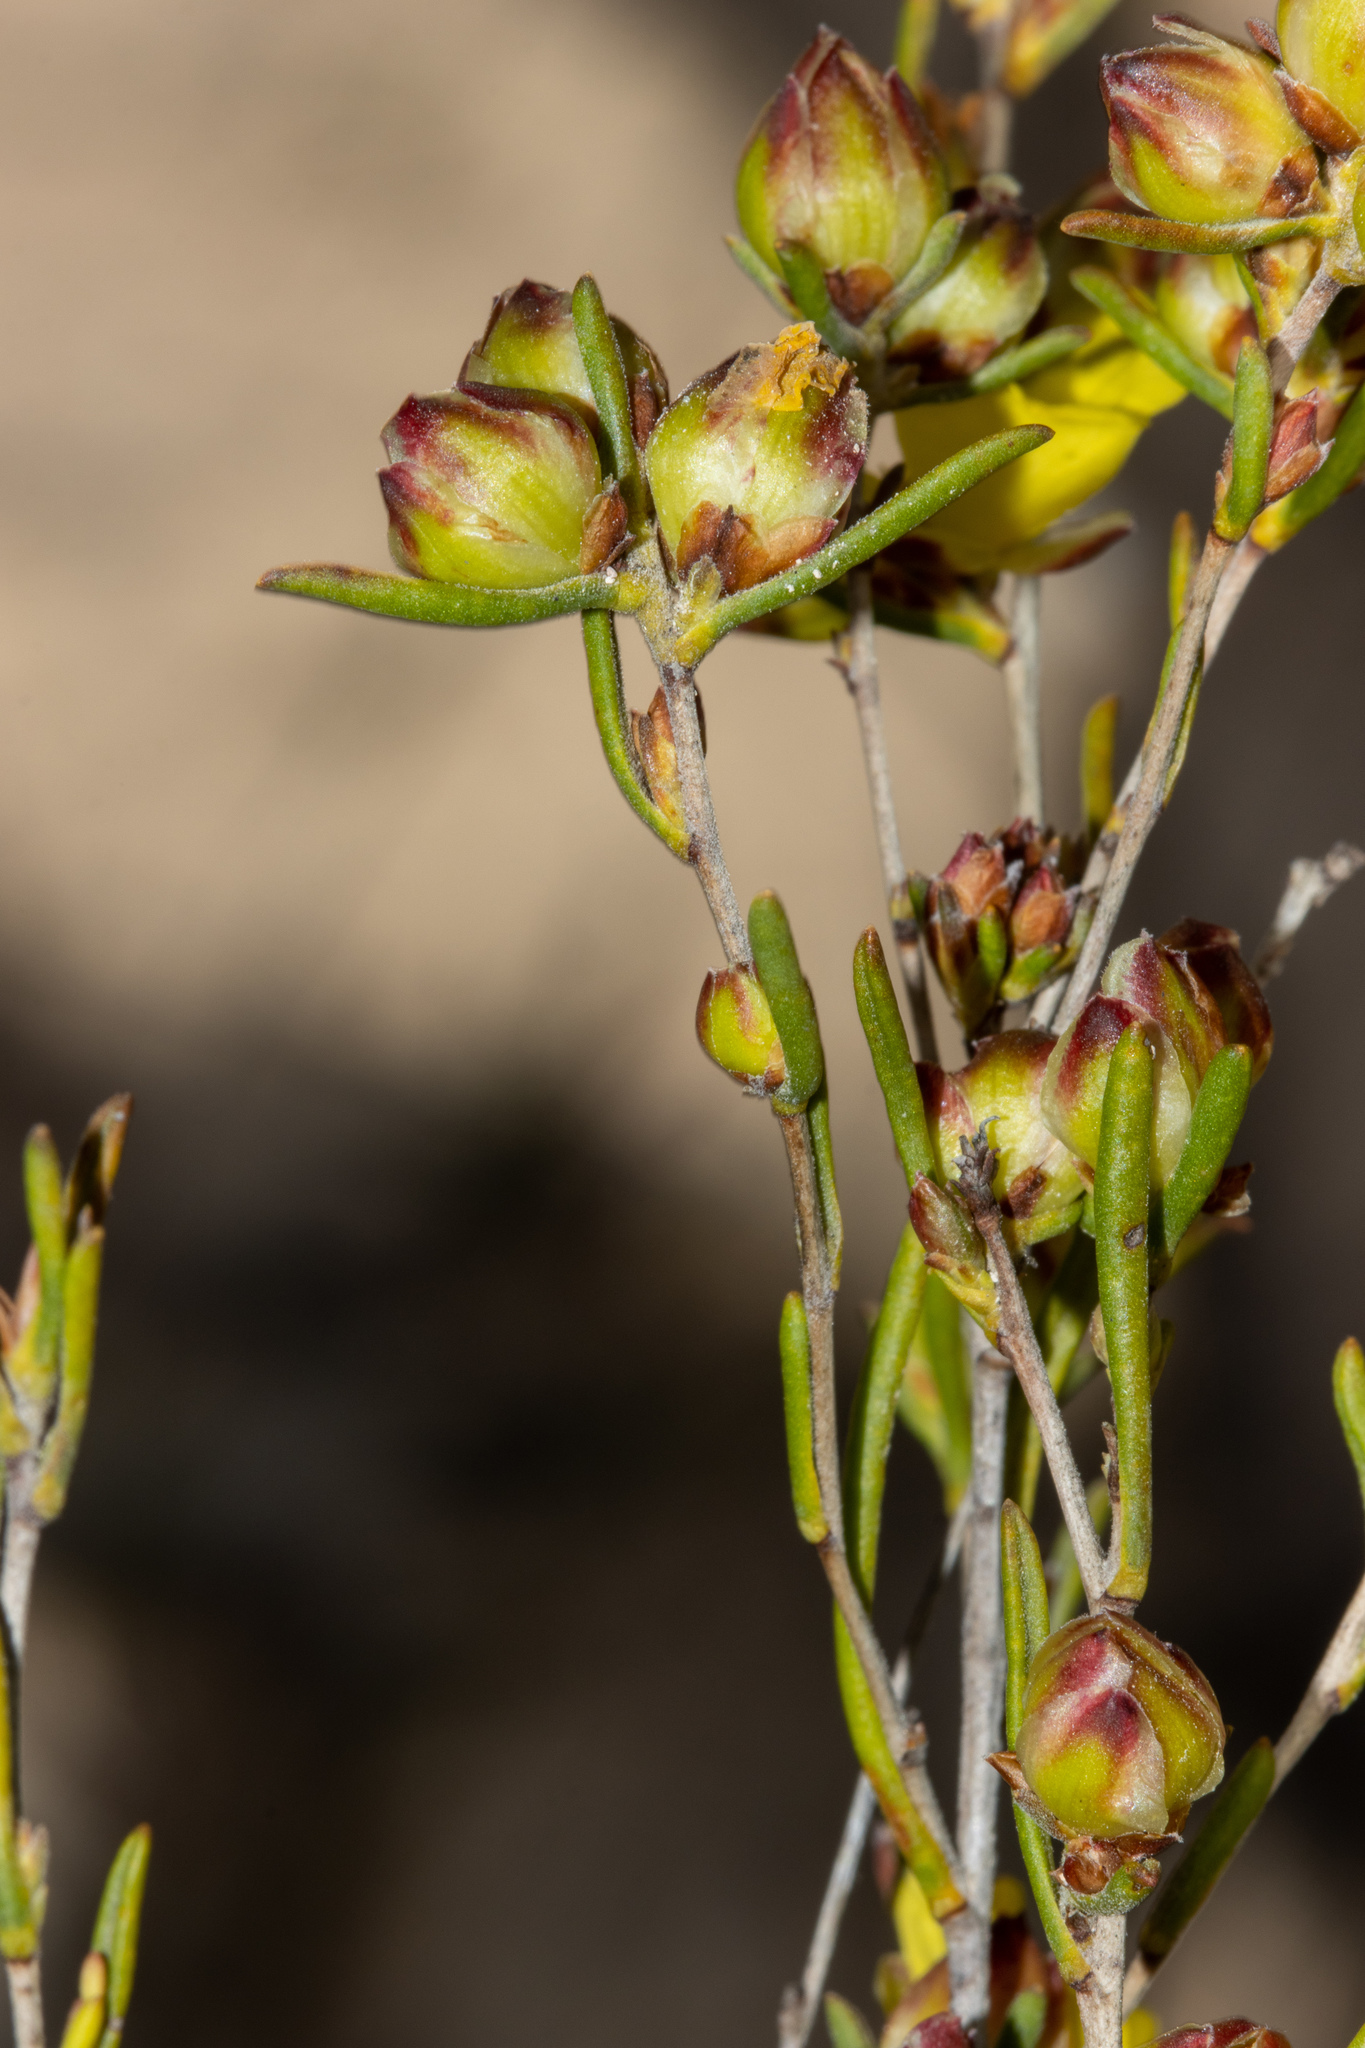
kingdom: Plantae
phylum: Tracheophyta
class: Magnoliopsida
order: Dilleniales
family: Dilleniaceae
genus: Hibbertia
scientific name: Hibbertia virgata
